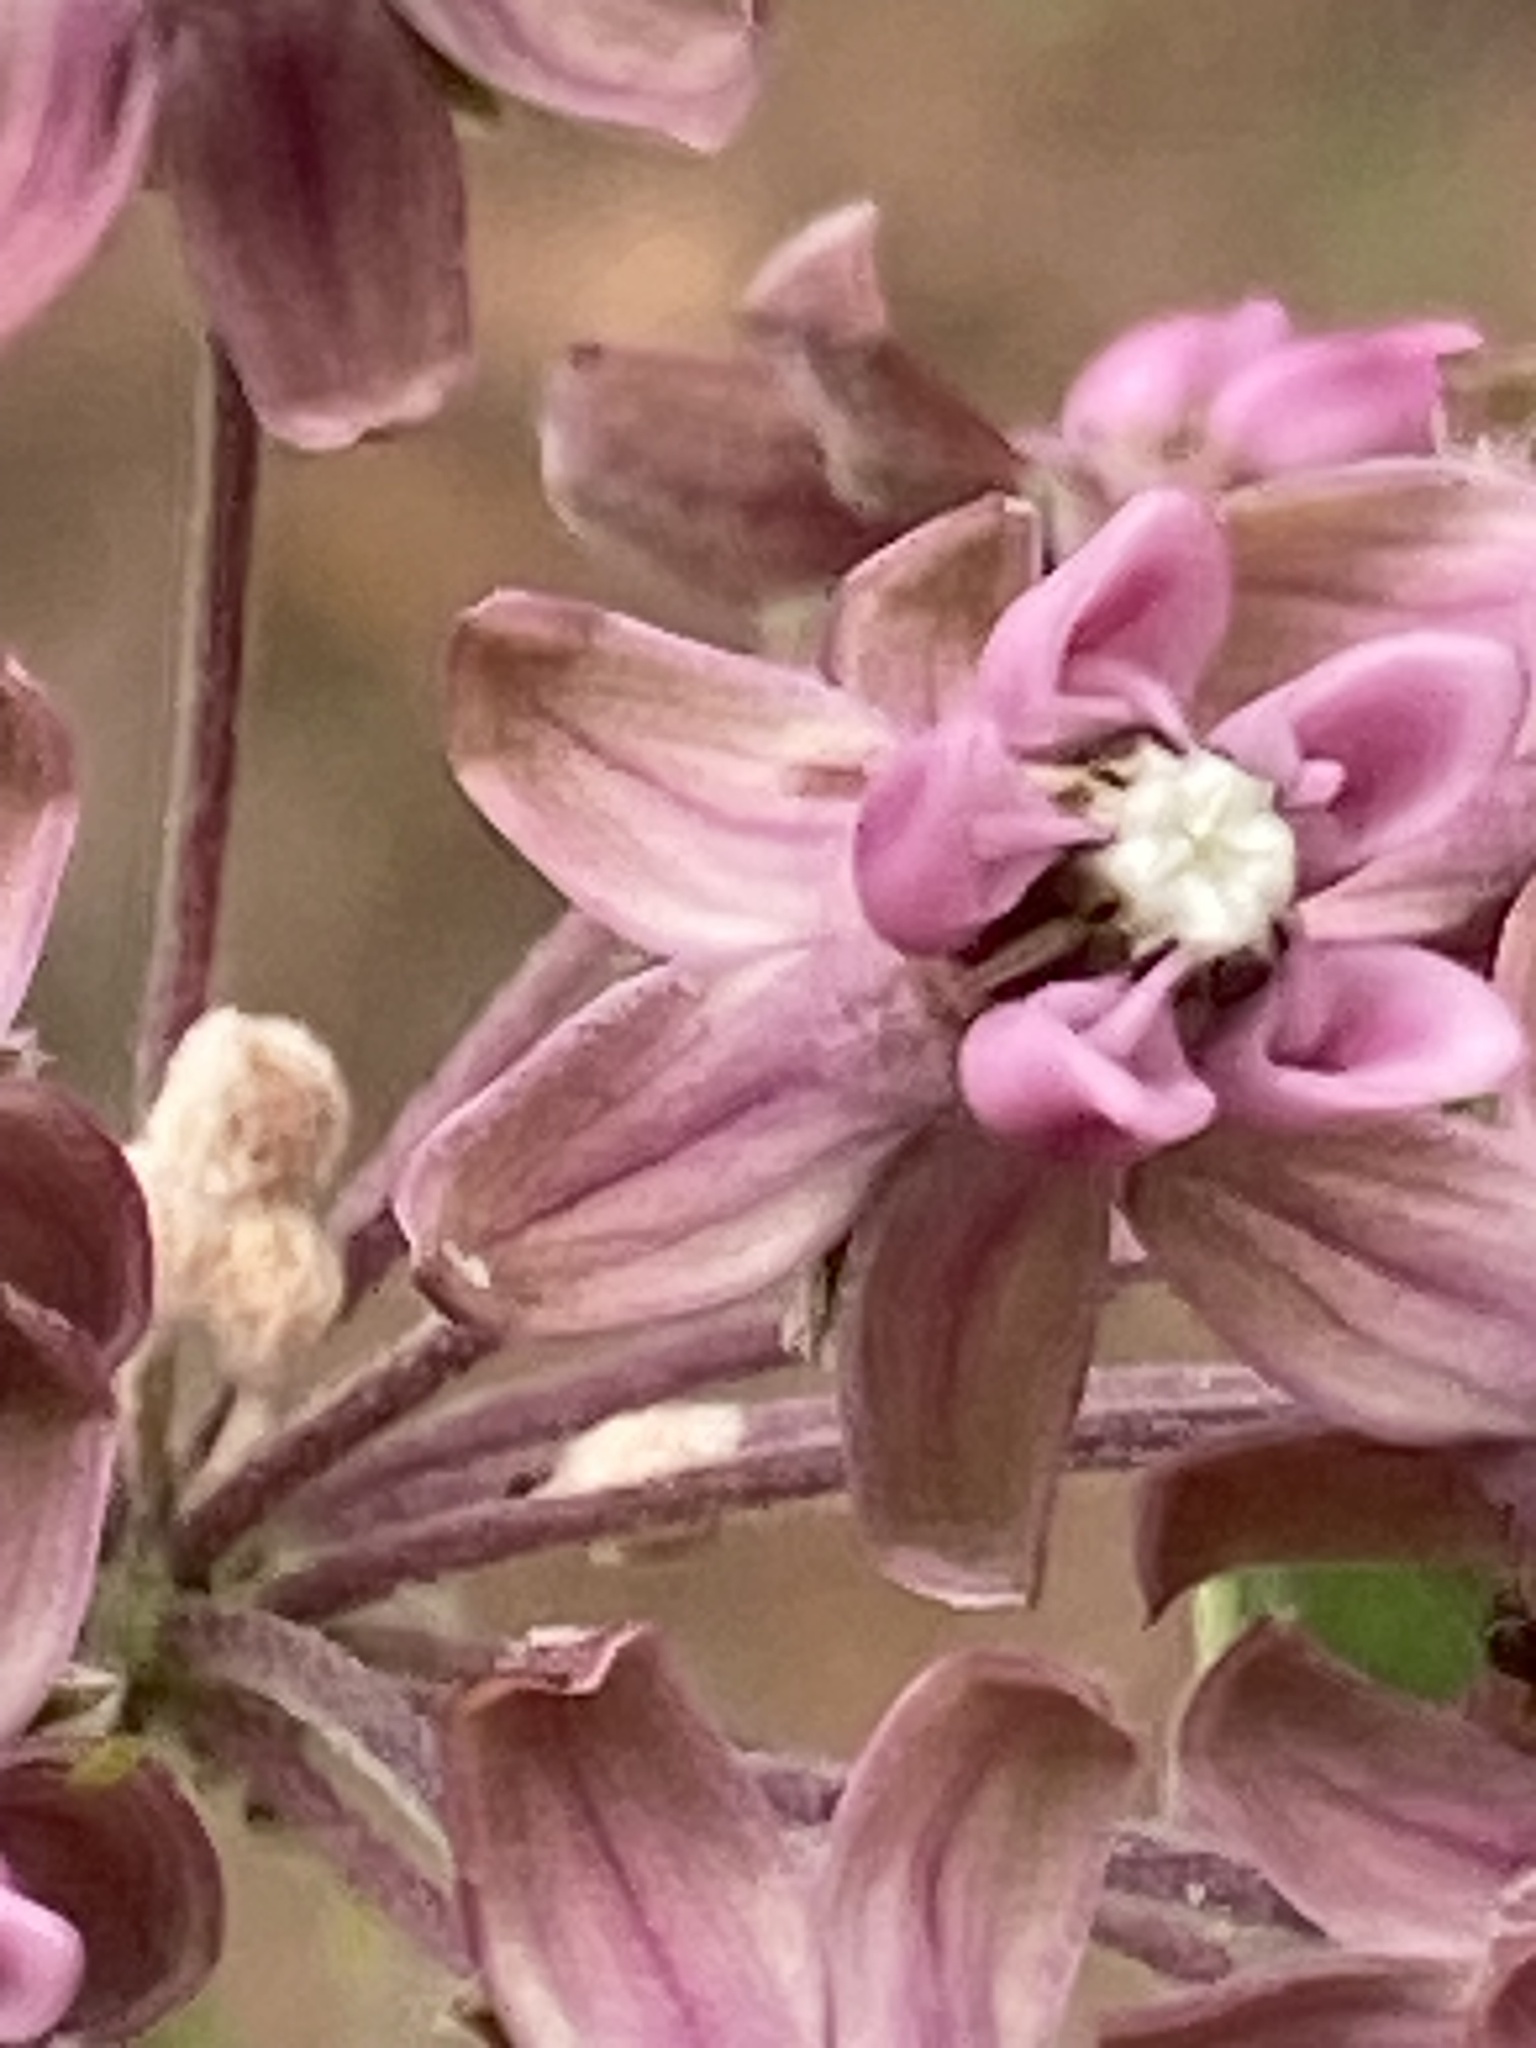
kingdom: Plantae
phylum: Tracheophyta
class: Magnoliopsida
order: Gentianales
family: Apocynaceae
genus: Asclepias
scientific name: Asclepias syriaca
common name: Common milkweed
